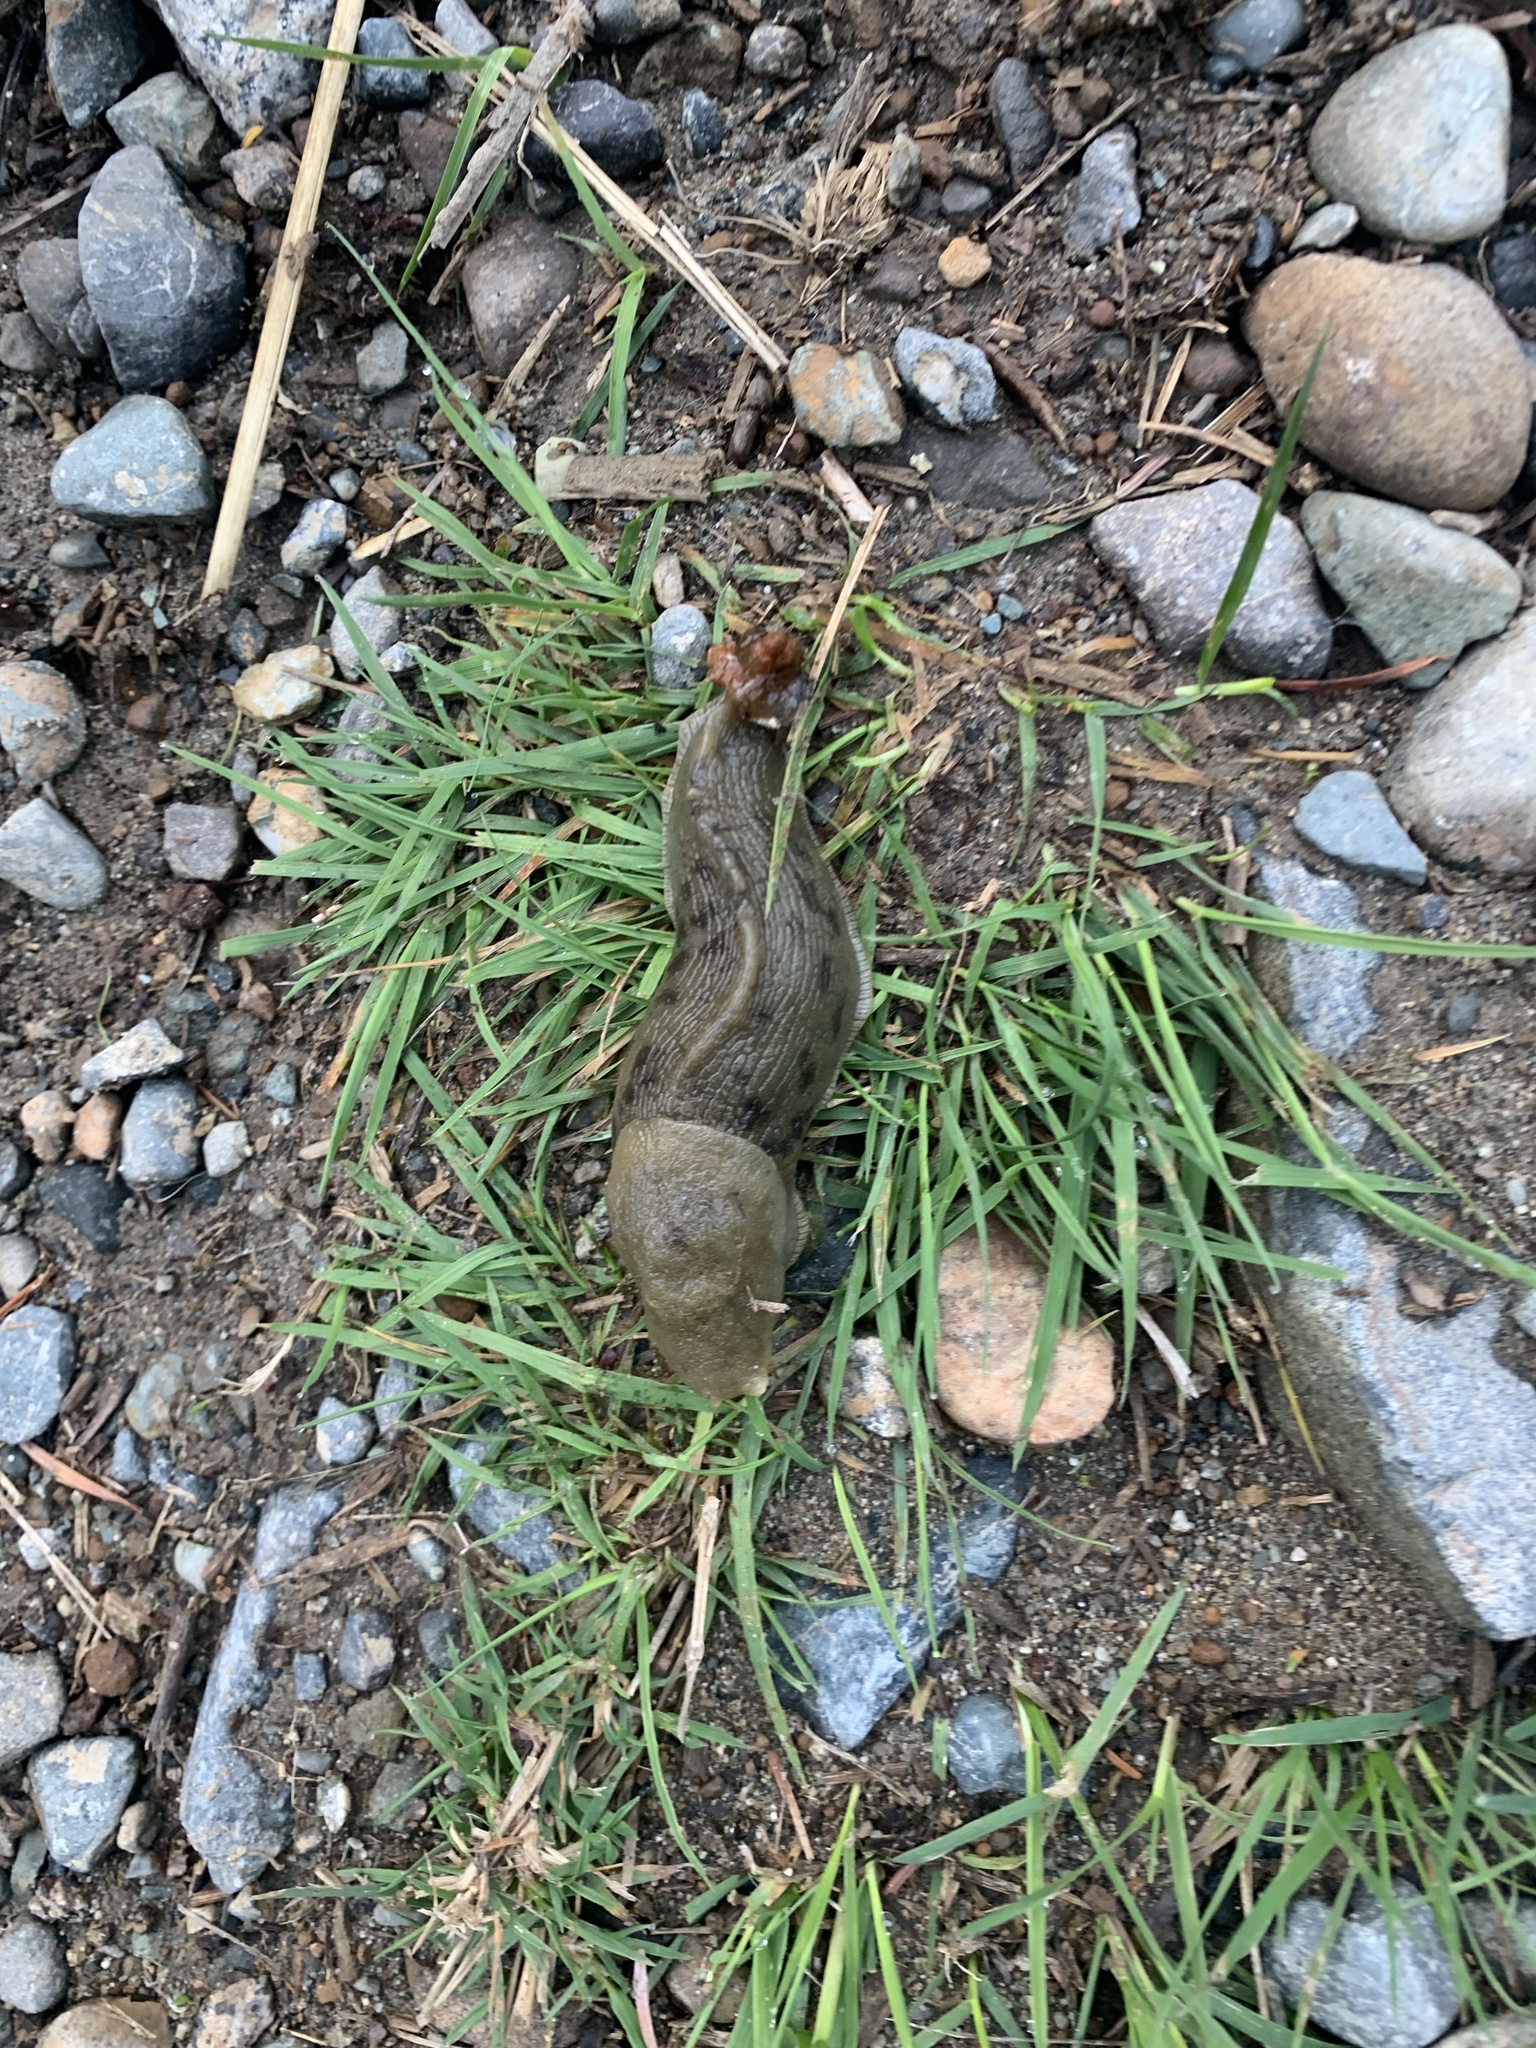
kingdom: Animalia
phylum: Mollusca
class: Gastropoda
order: Stylommatophora
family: Ariolimacidae
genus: Ariolimax
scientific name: Ariolimax columbianus
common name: Pacific banana slug
